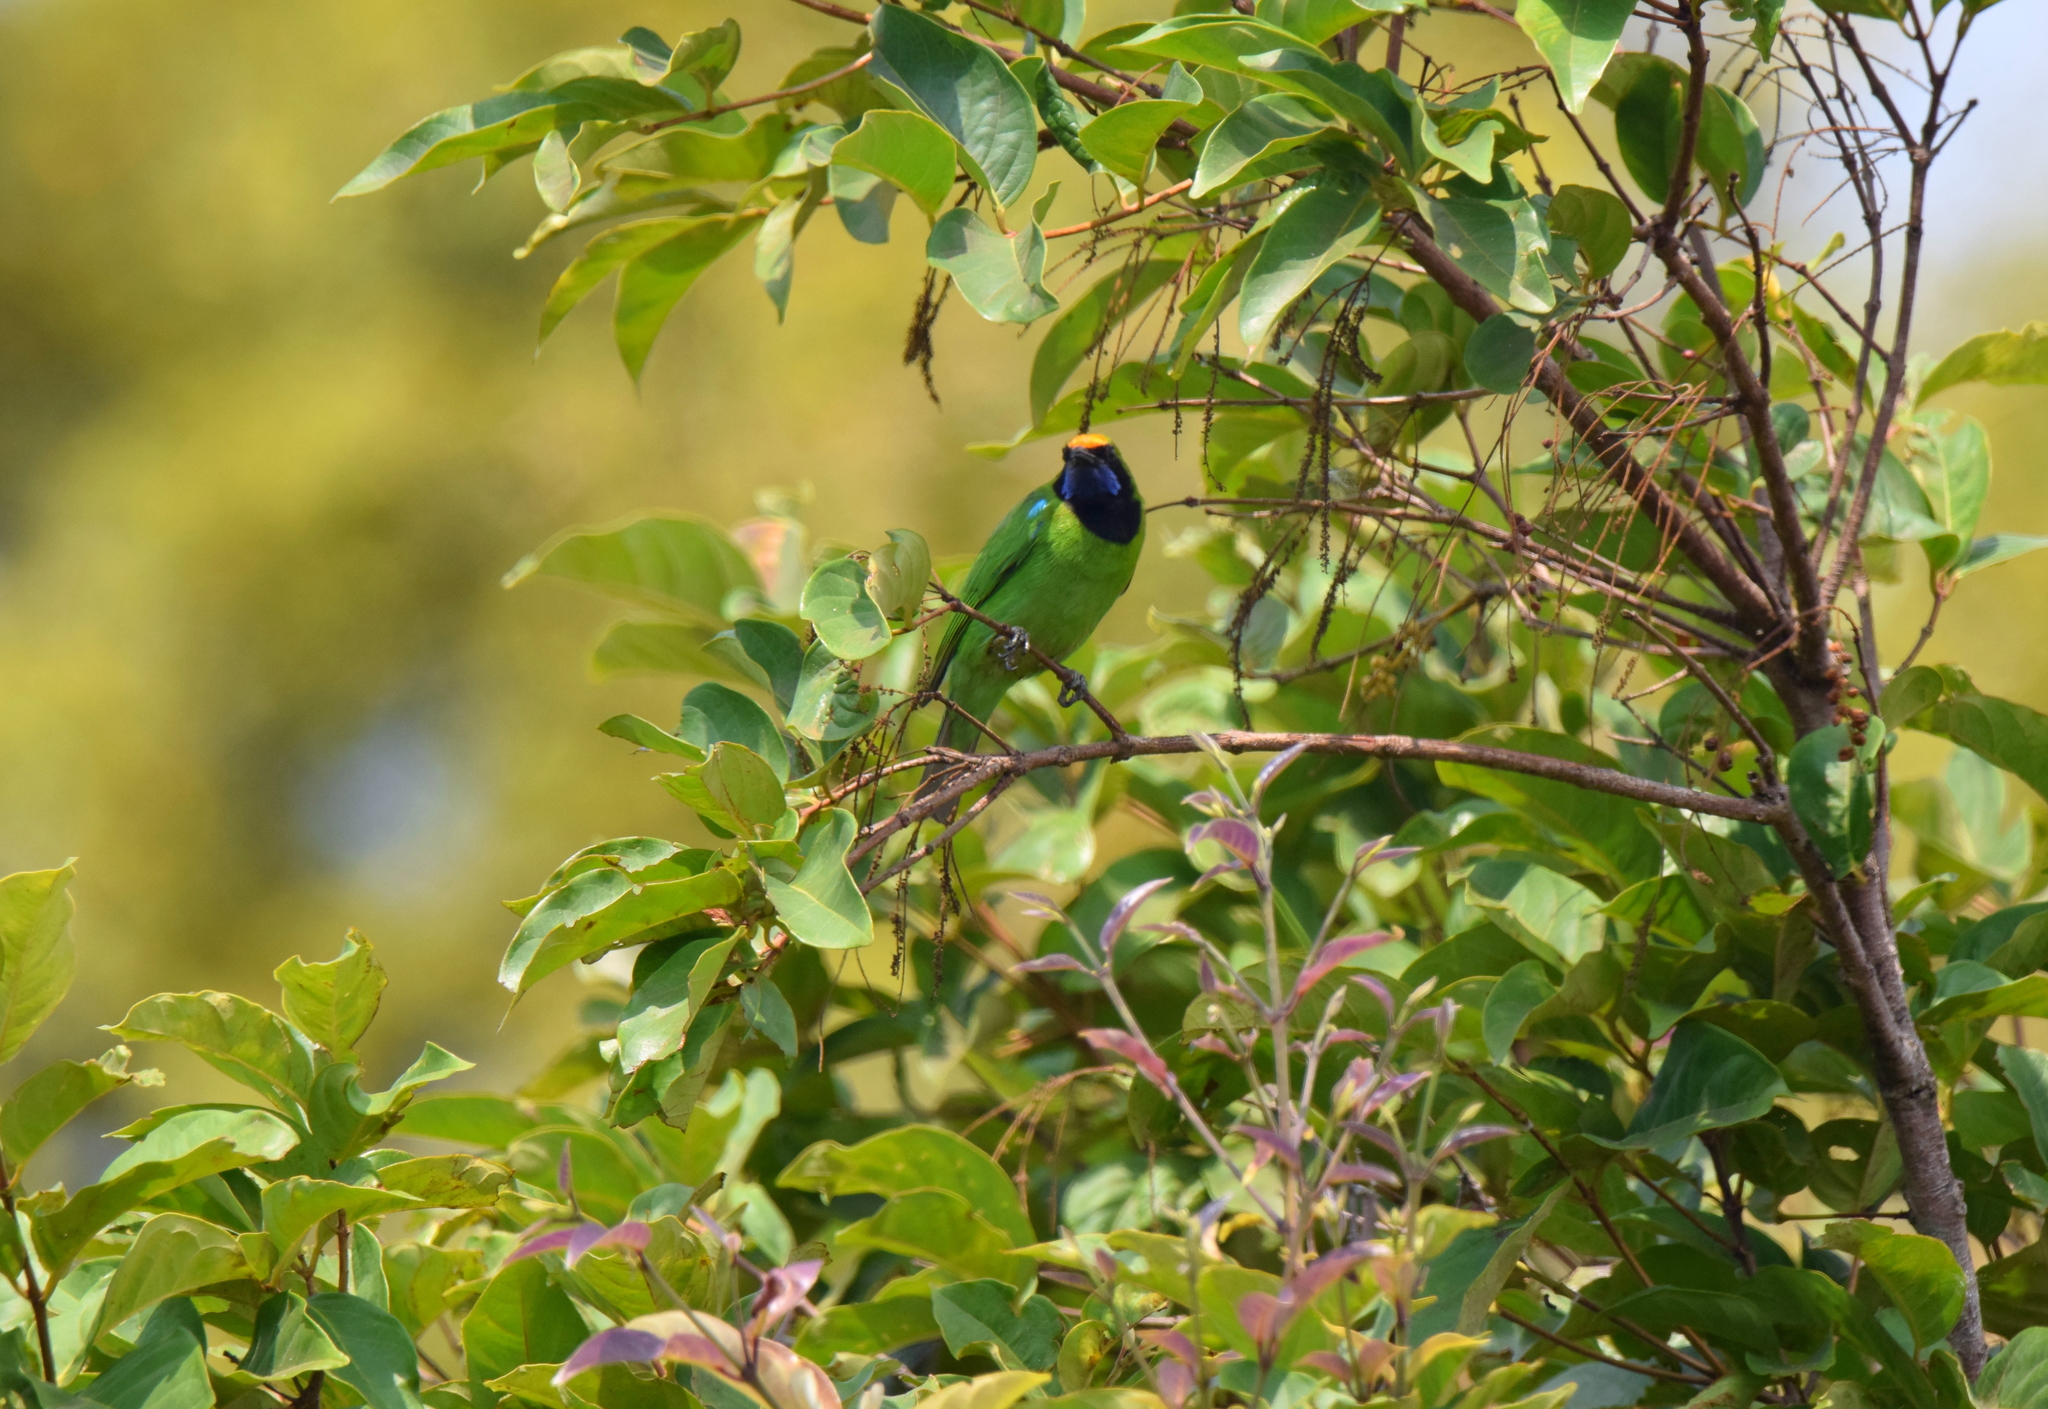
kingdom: Animalia
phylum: Chordata
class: Aves
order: Passeriformes
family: Chloropseidae
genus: Chloropsis
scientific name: Chloropsis aurifrons
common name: Golden-fronted leafbird
